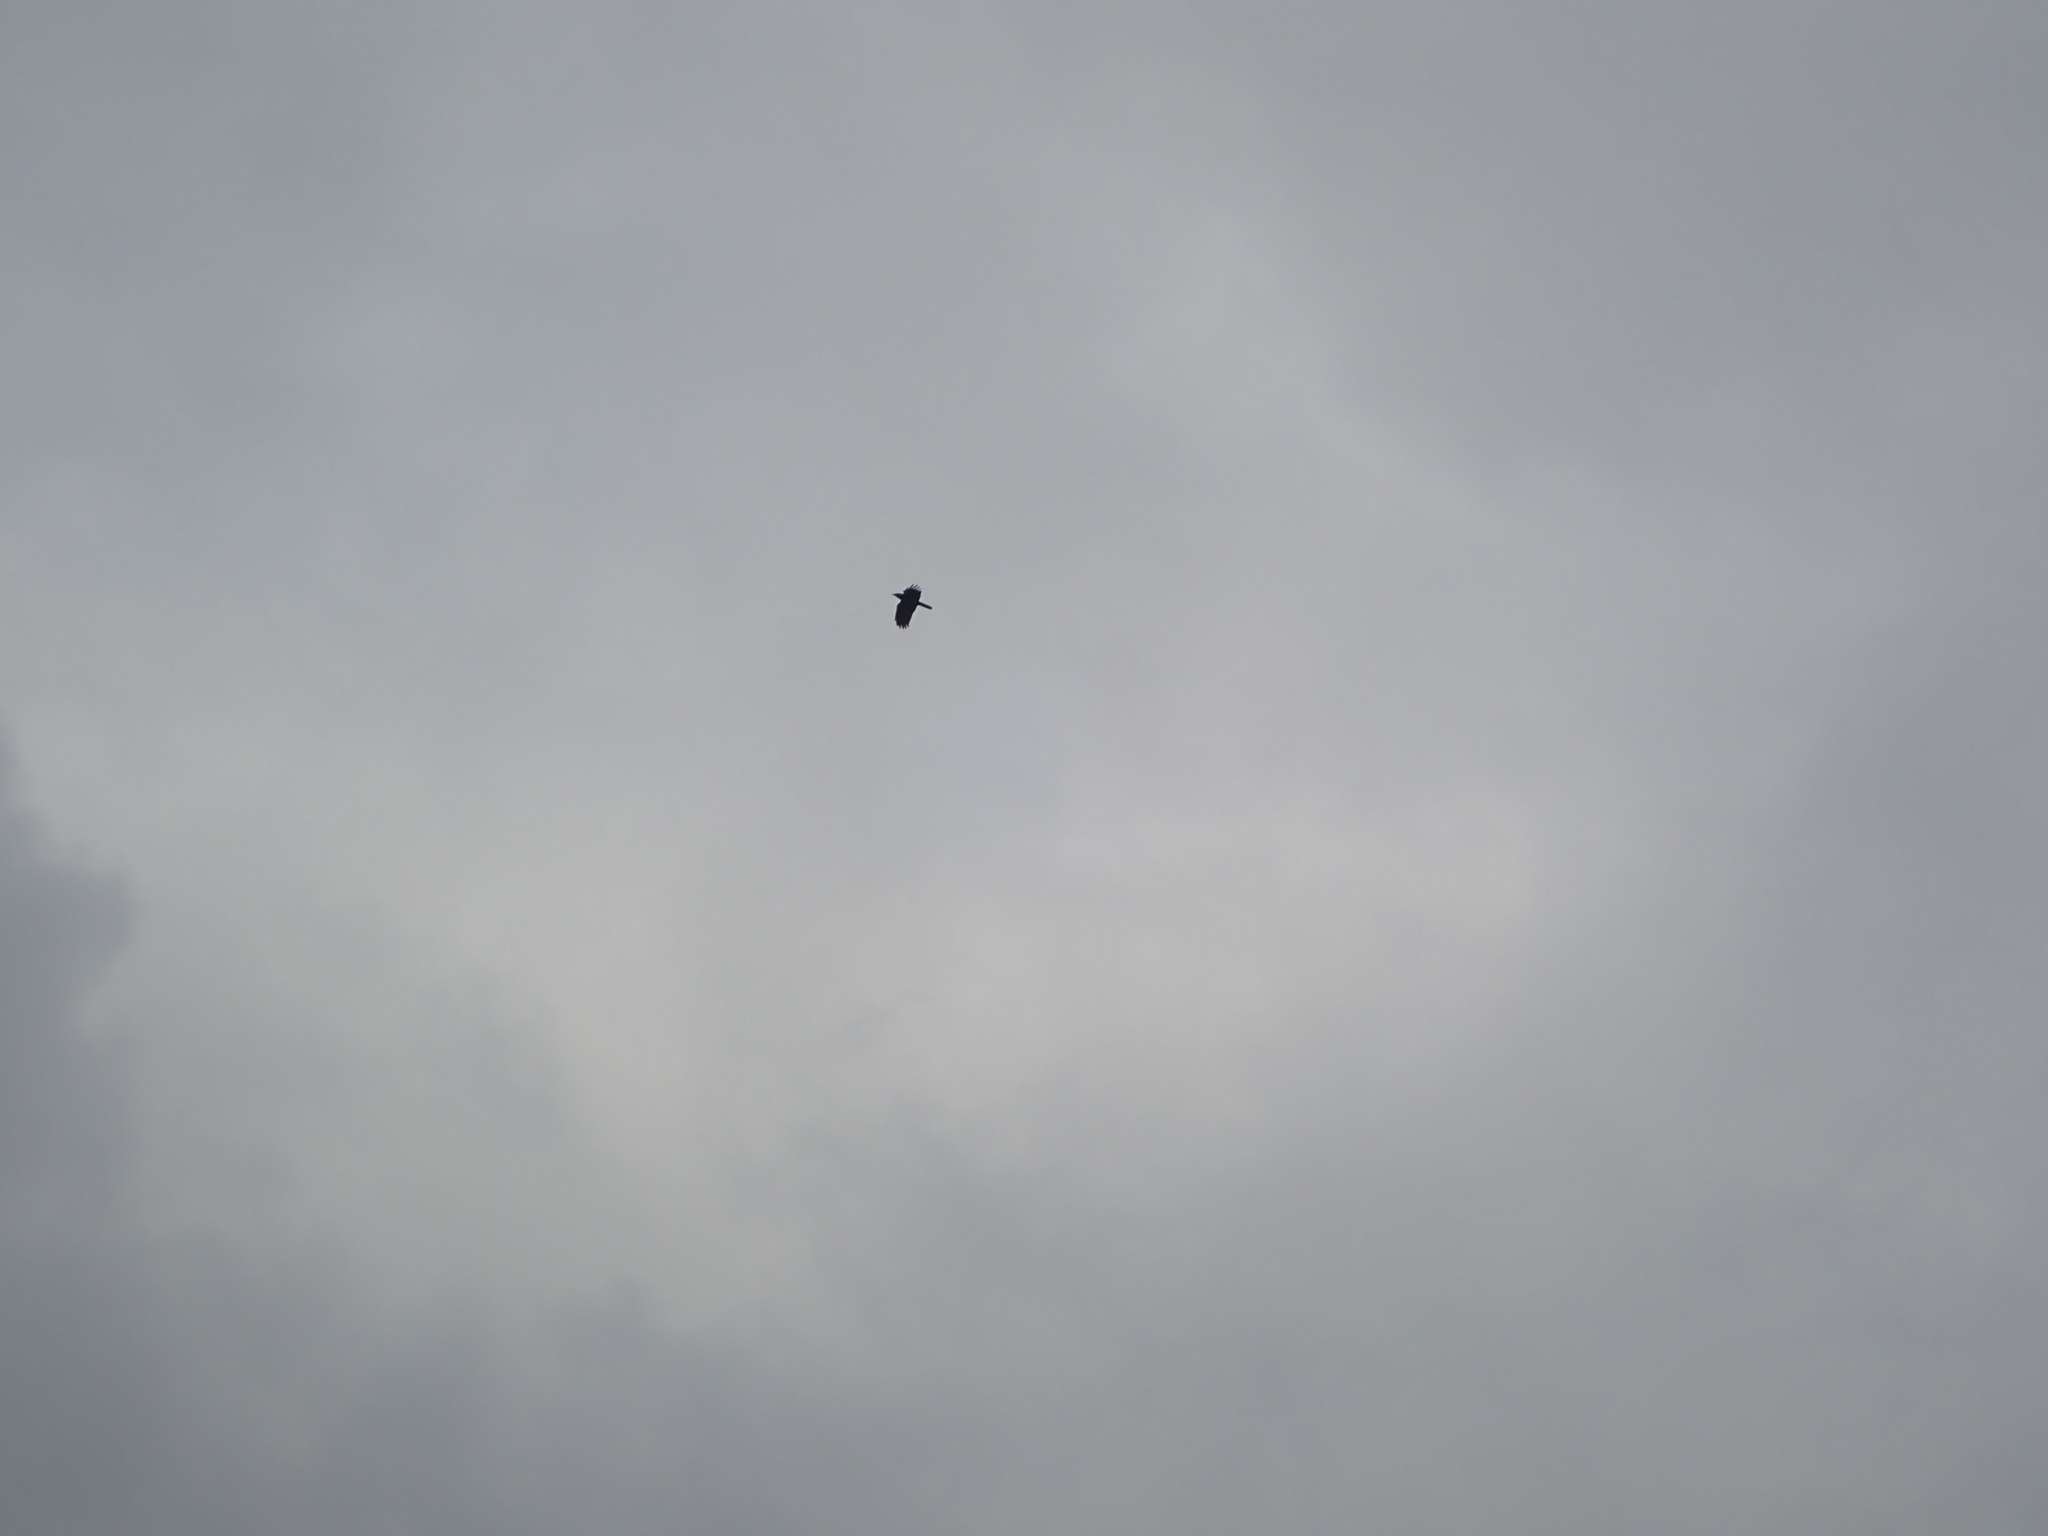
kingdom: Animalia
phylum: Chordata
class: Aves
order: Passeriformes
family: Corvidae
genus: Corvus
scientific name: Corvus brachyrhynchos
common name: American crow
